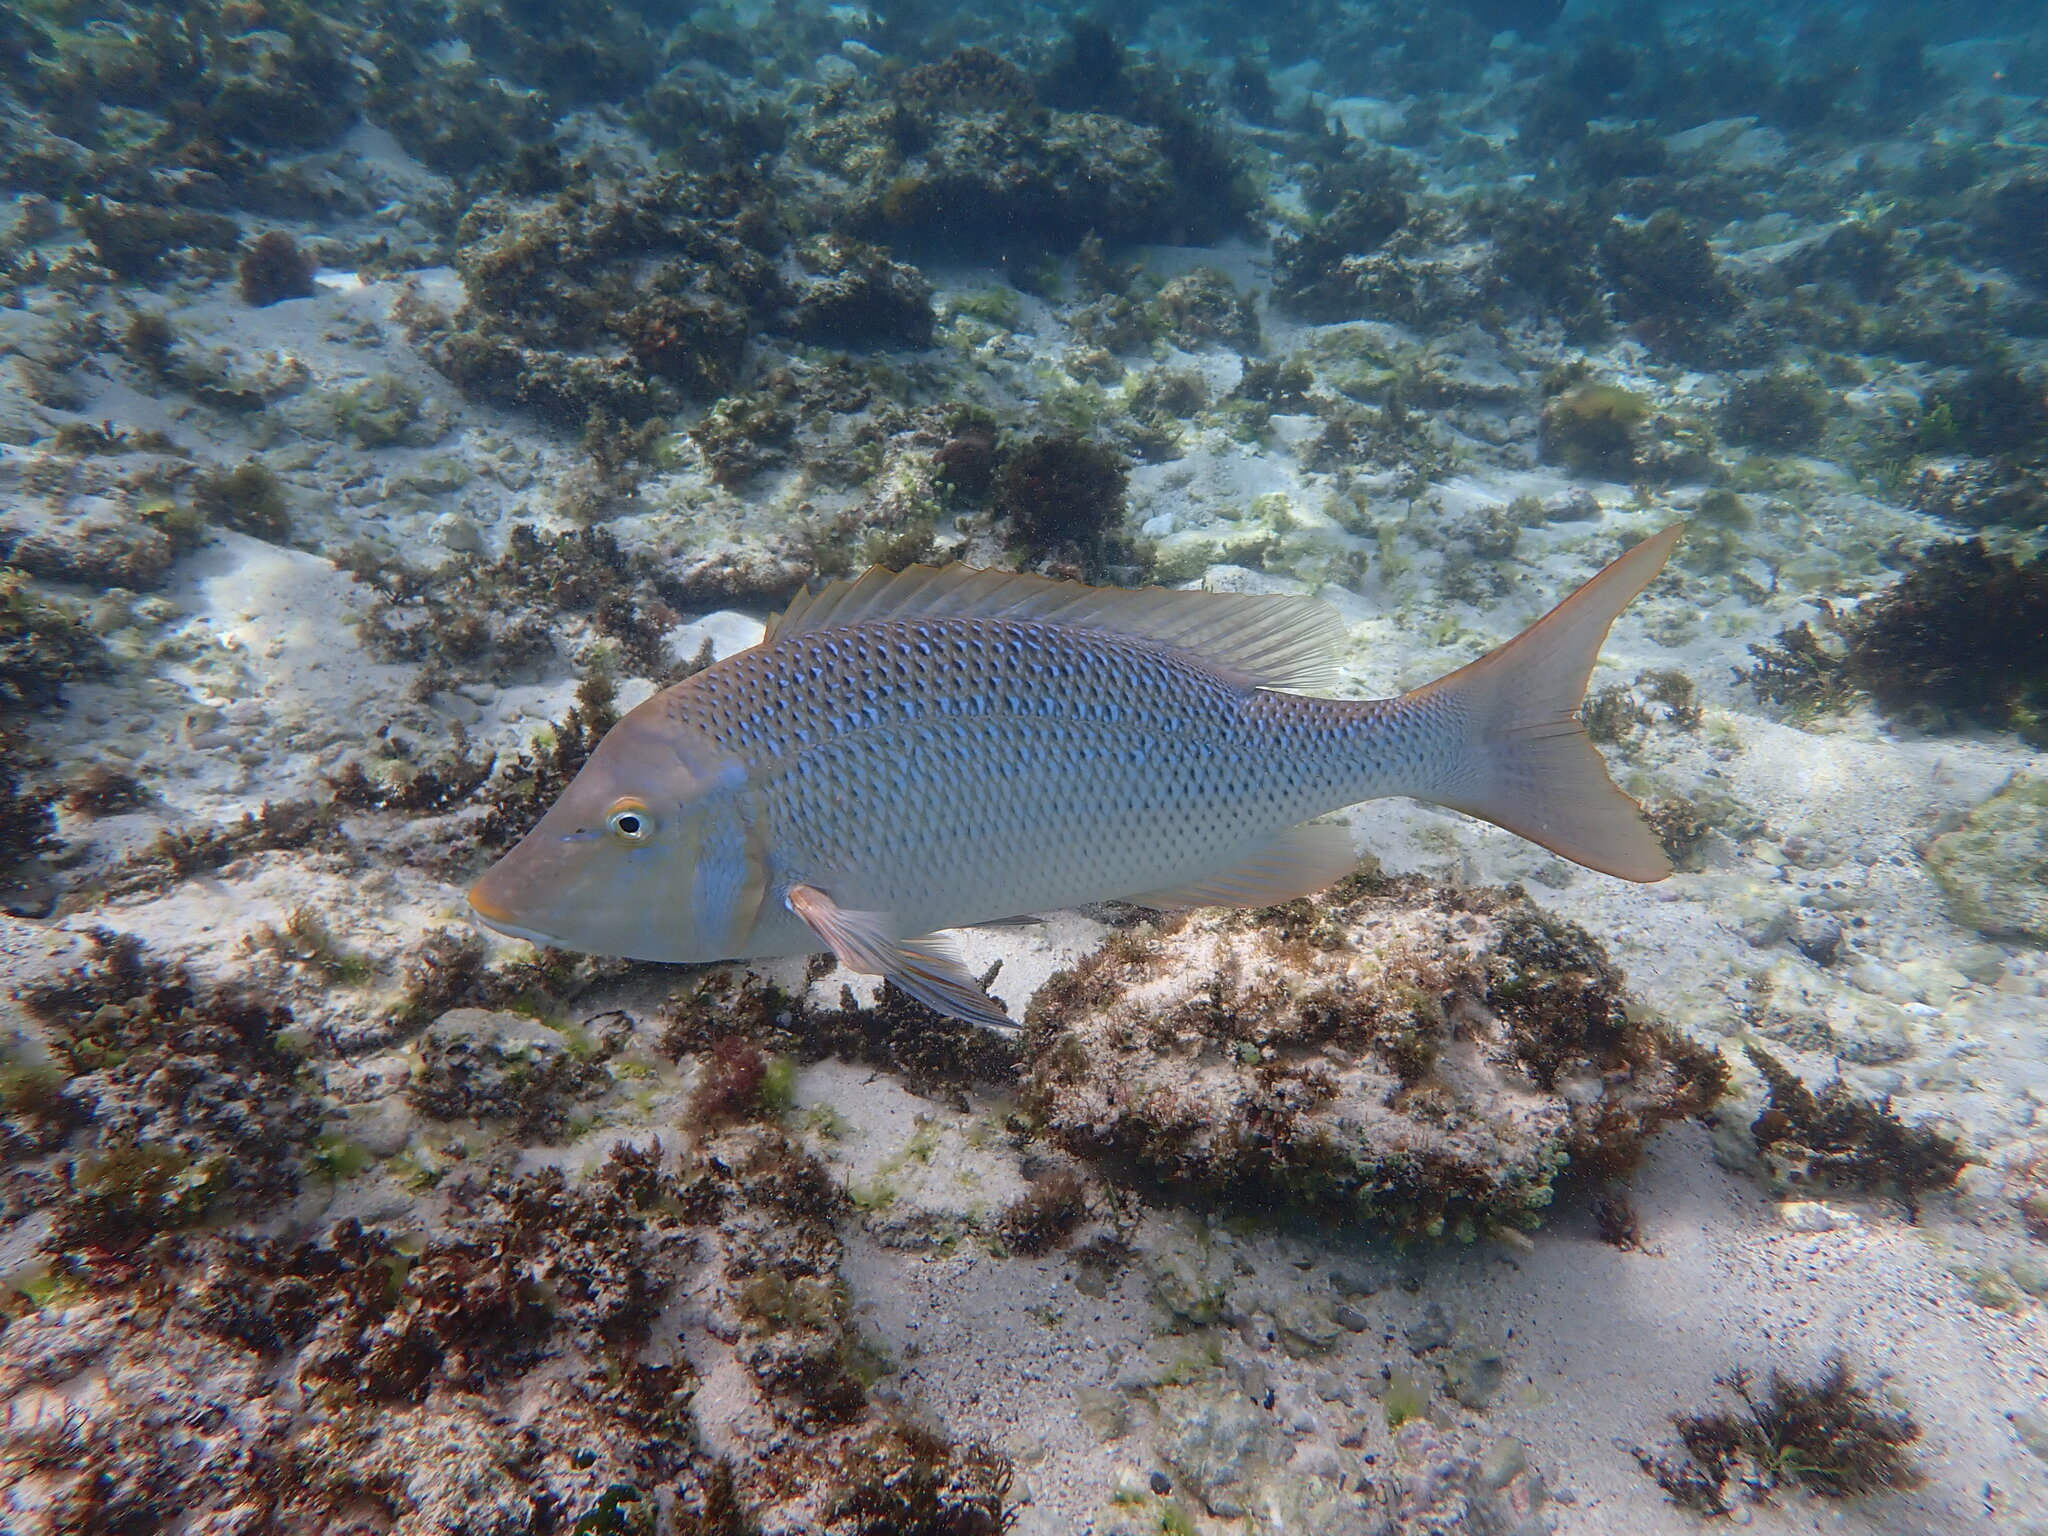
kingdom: Animalia
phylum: Chordata
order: Perciformes
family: Lethrinidae
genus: Lethrinus
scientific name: Lethrinus nebulosus
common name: Spangled emperor
